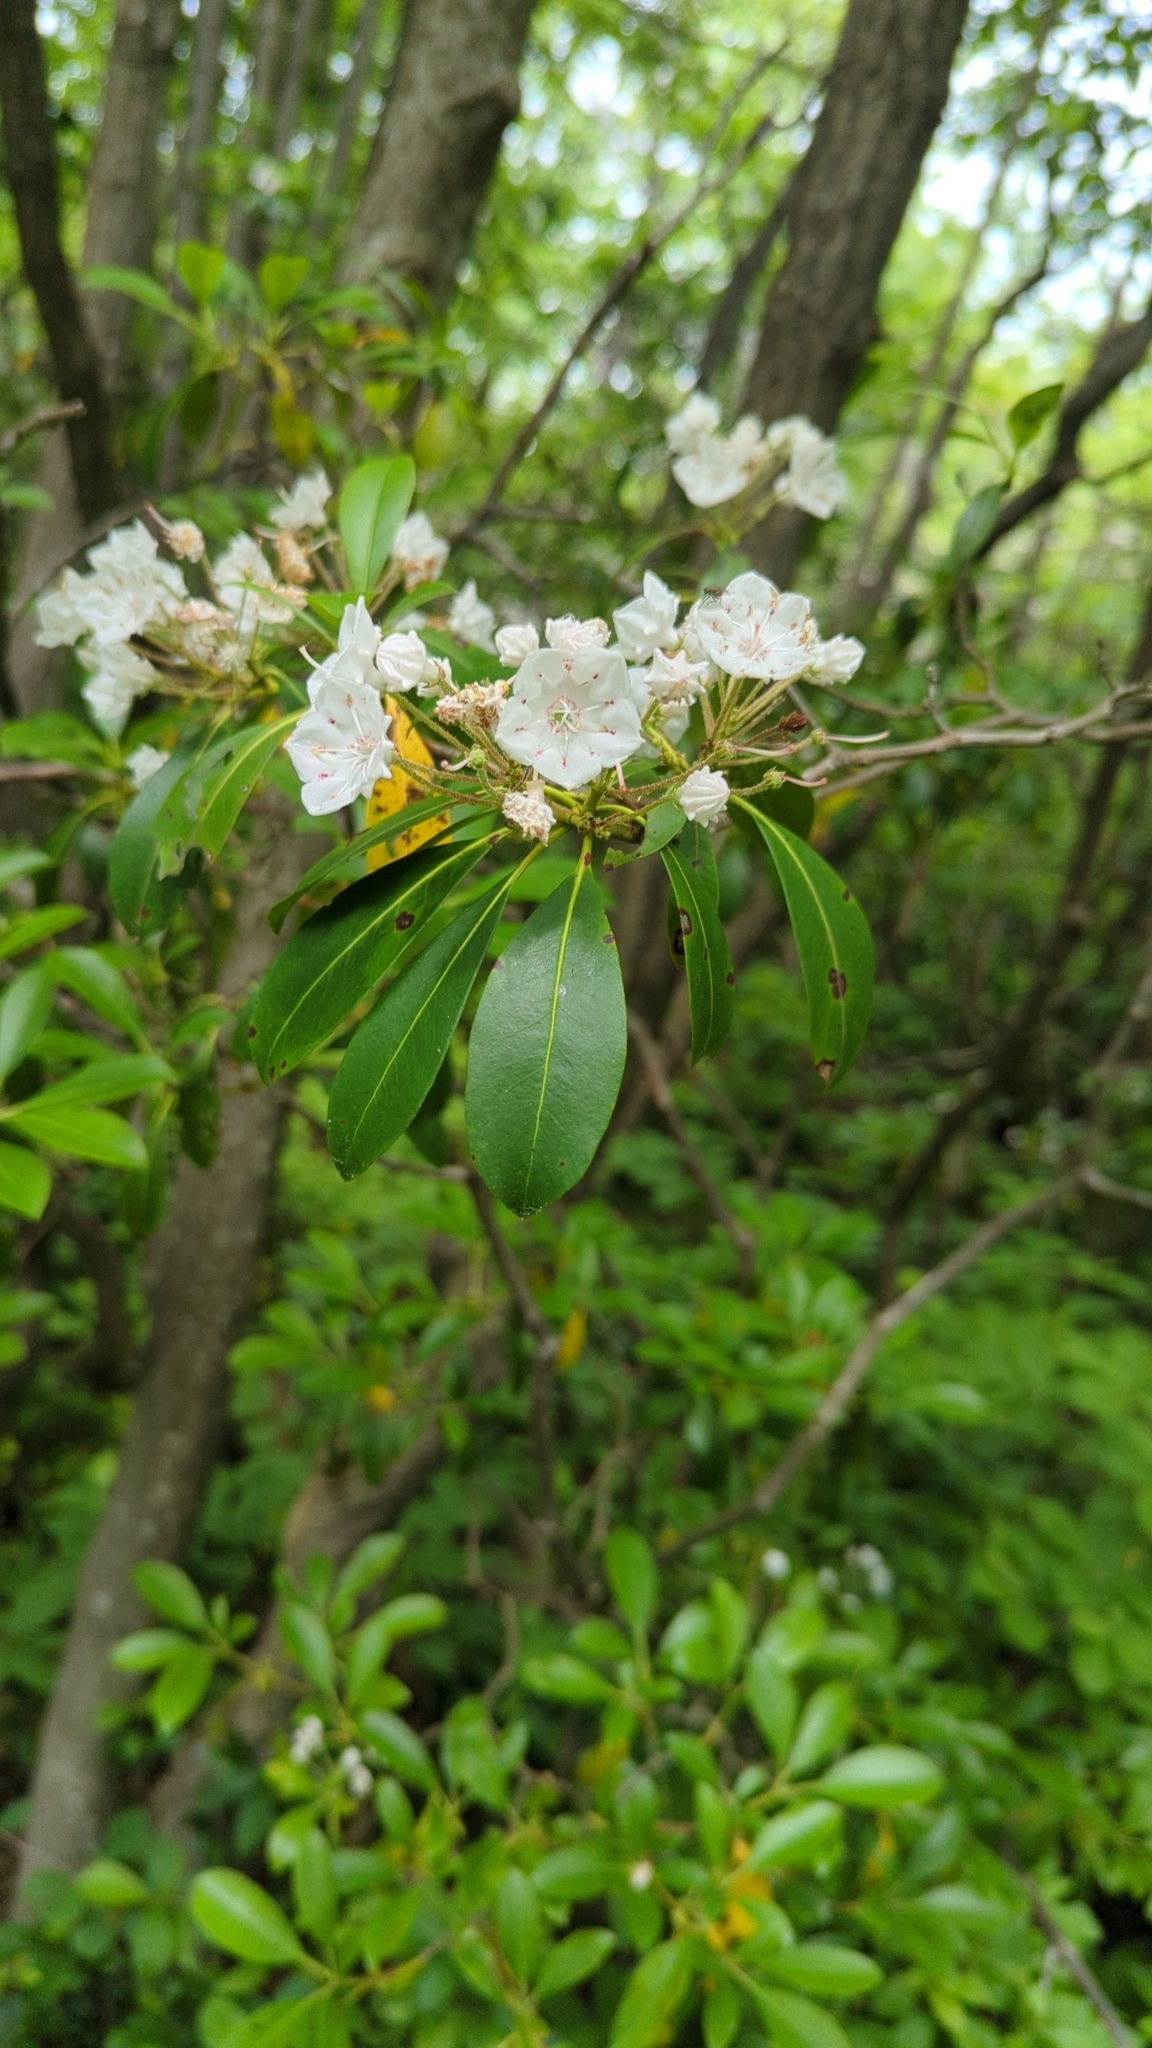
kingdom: Plantae
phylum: Tracheophyta
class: Magnoliopsida
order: Ericales
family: Ericaceae
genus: Kalmia
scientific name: Kalmia latifolia
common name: Mountain-laurel
